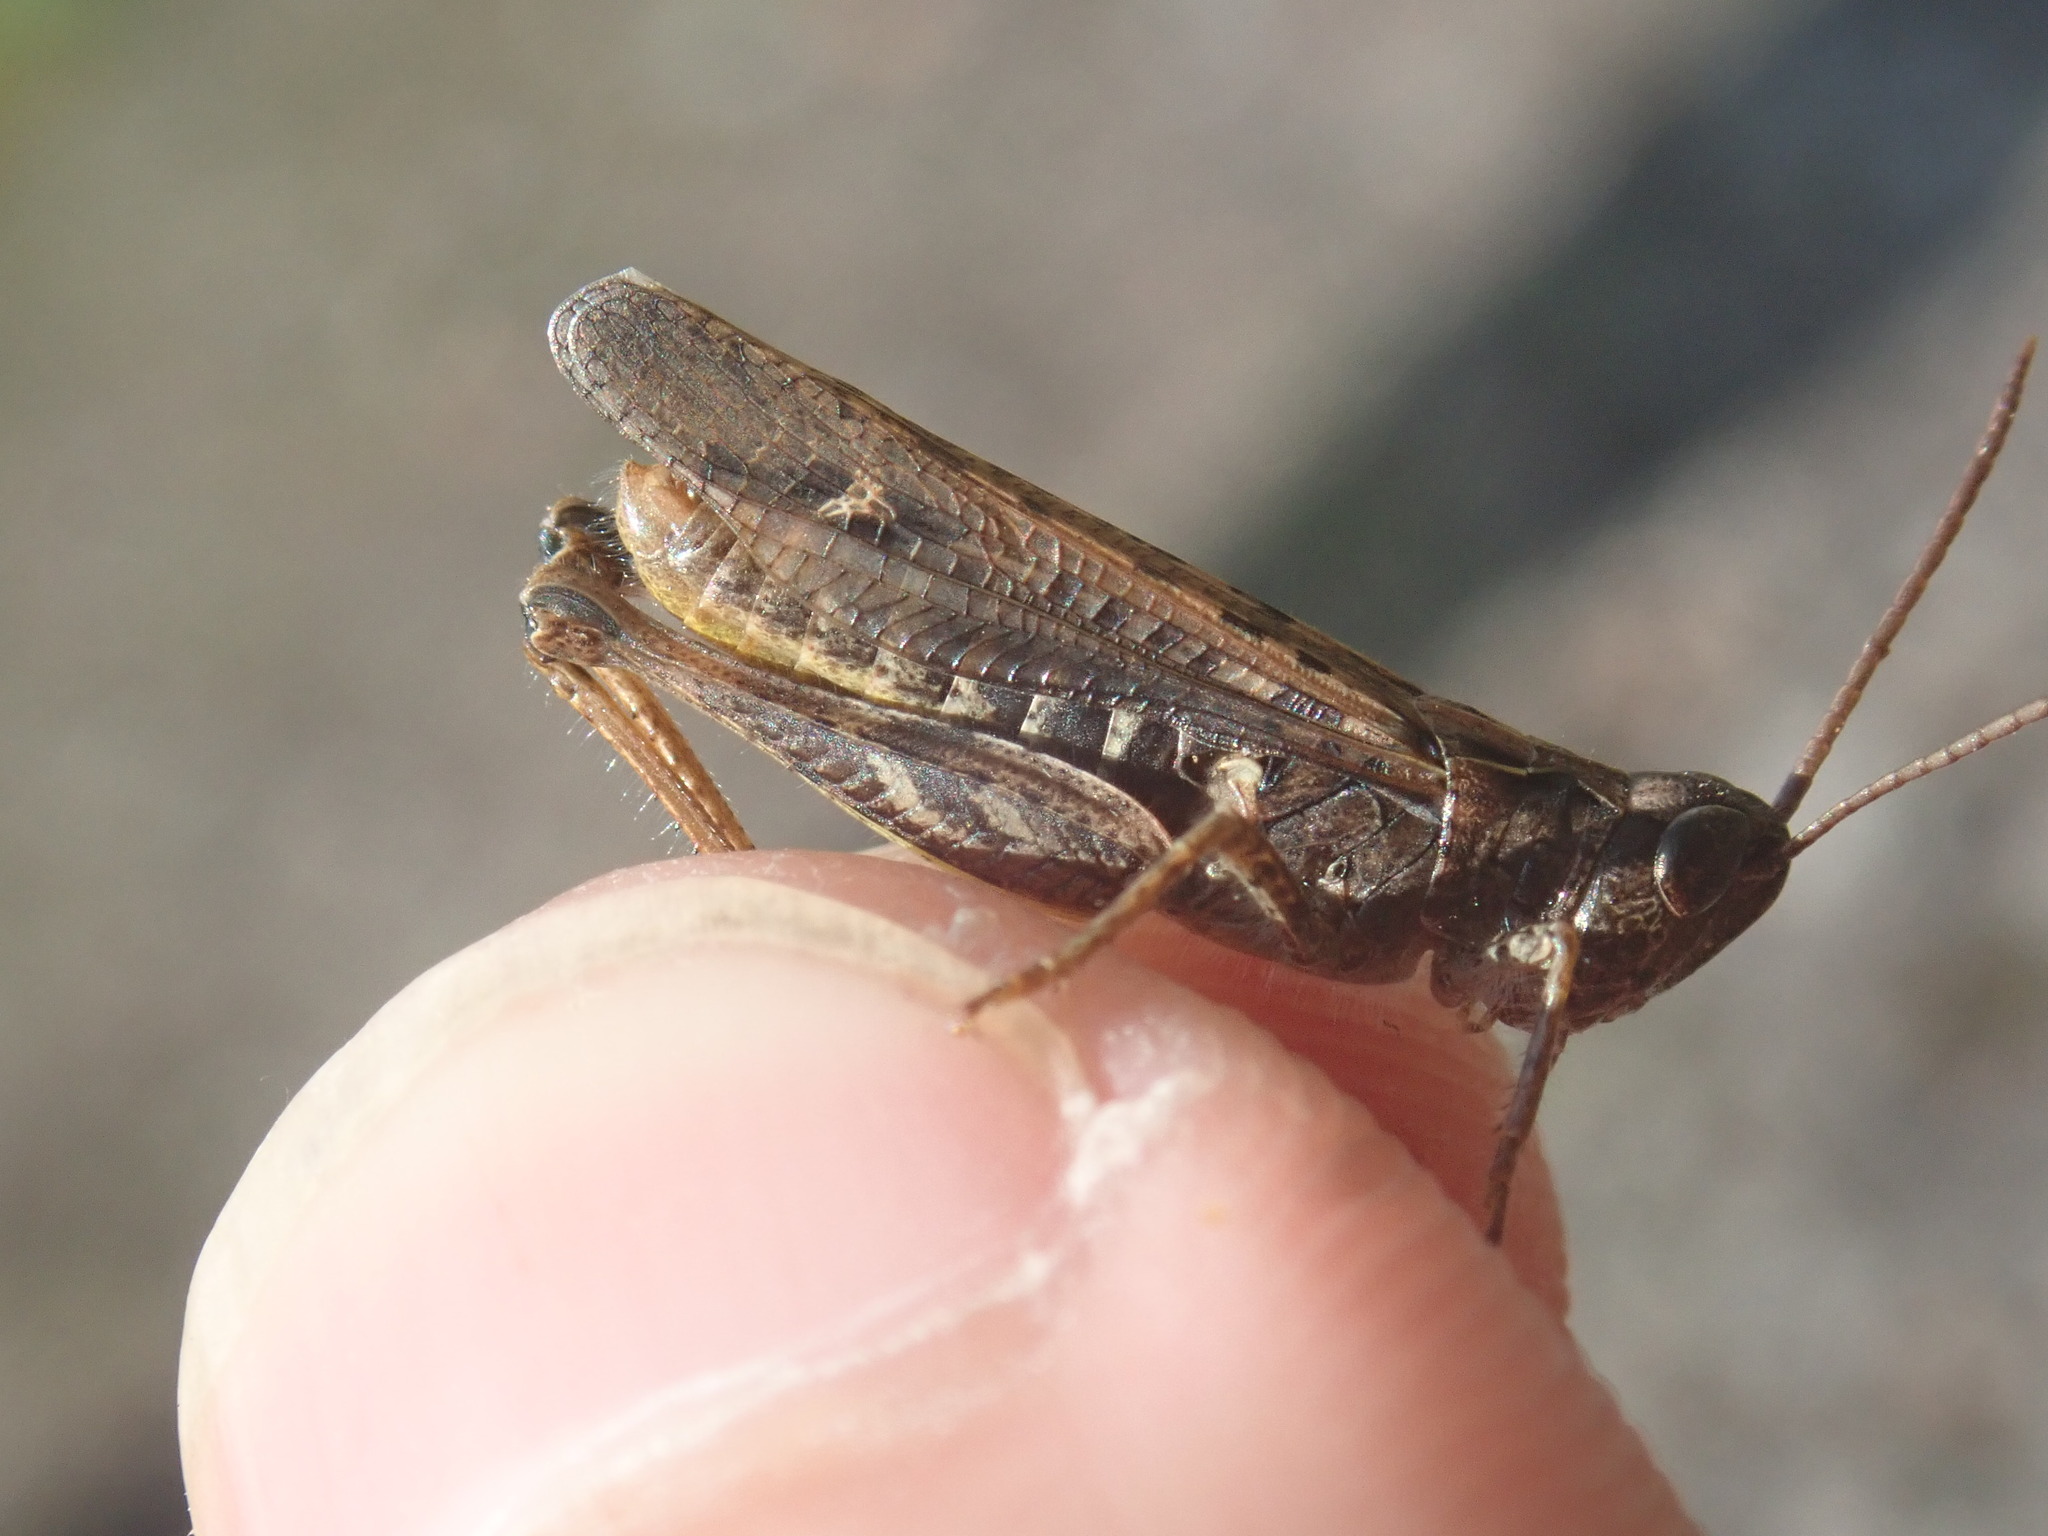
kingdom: Animalia
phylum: Arthropoda
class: Insecta
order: Orthoptera
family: Acrididae
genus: Chorthippus
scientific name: Chorthippus biguttulus
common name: Bow-winged grasshopper
